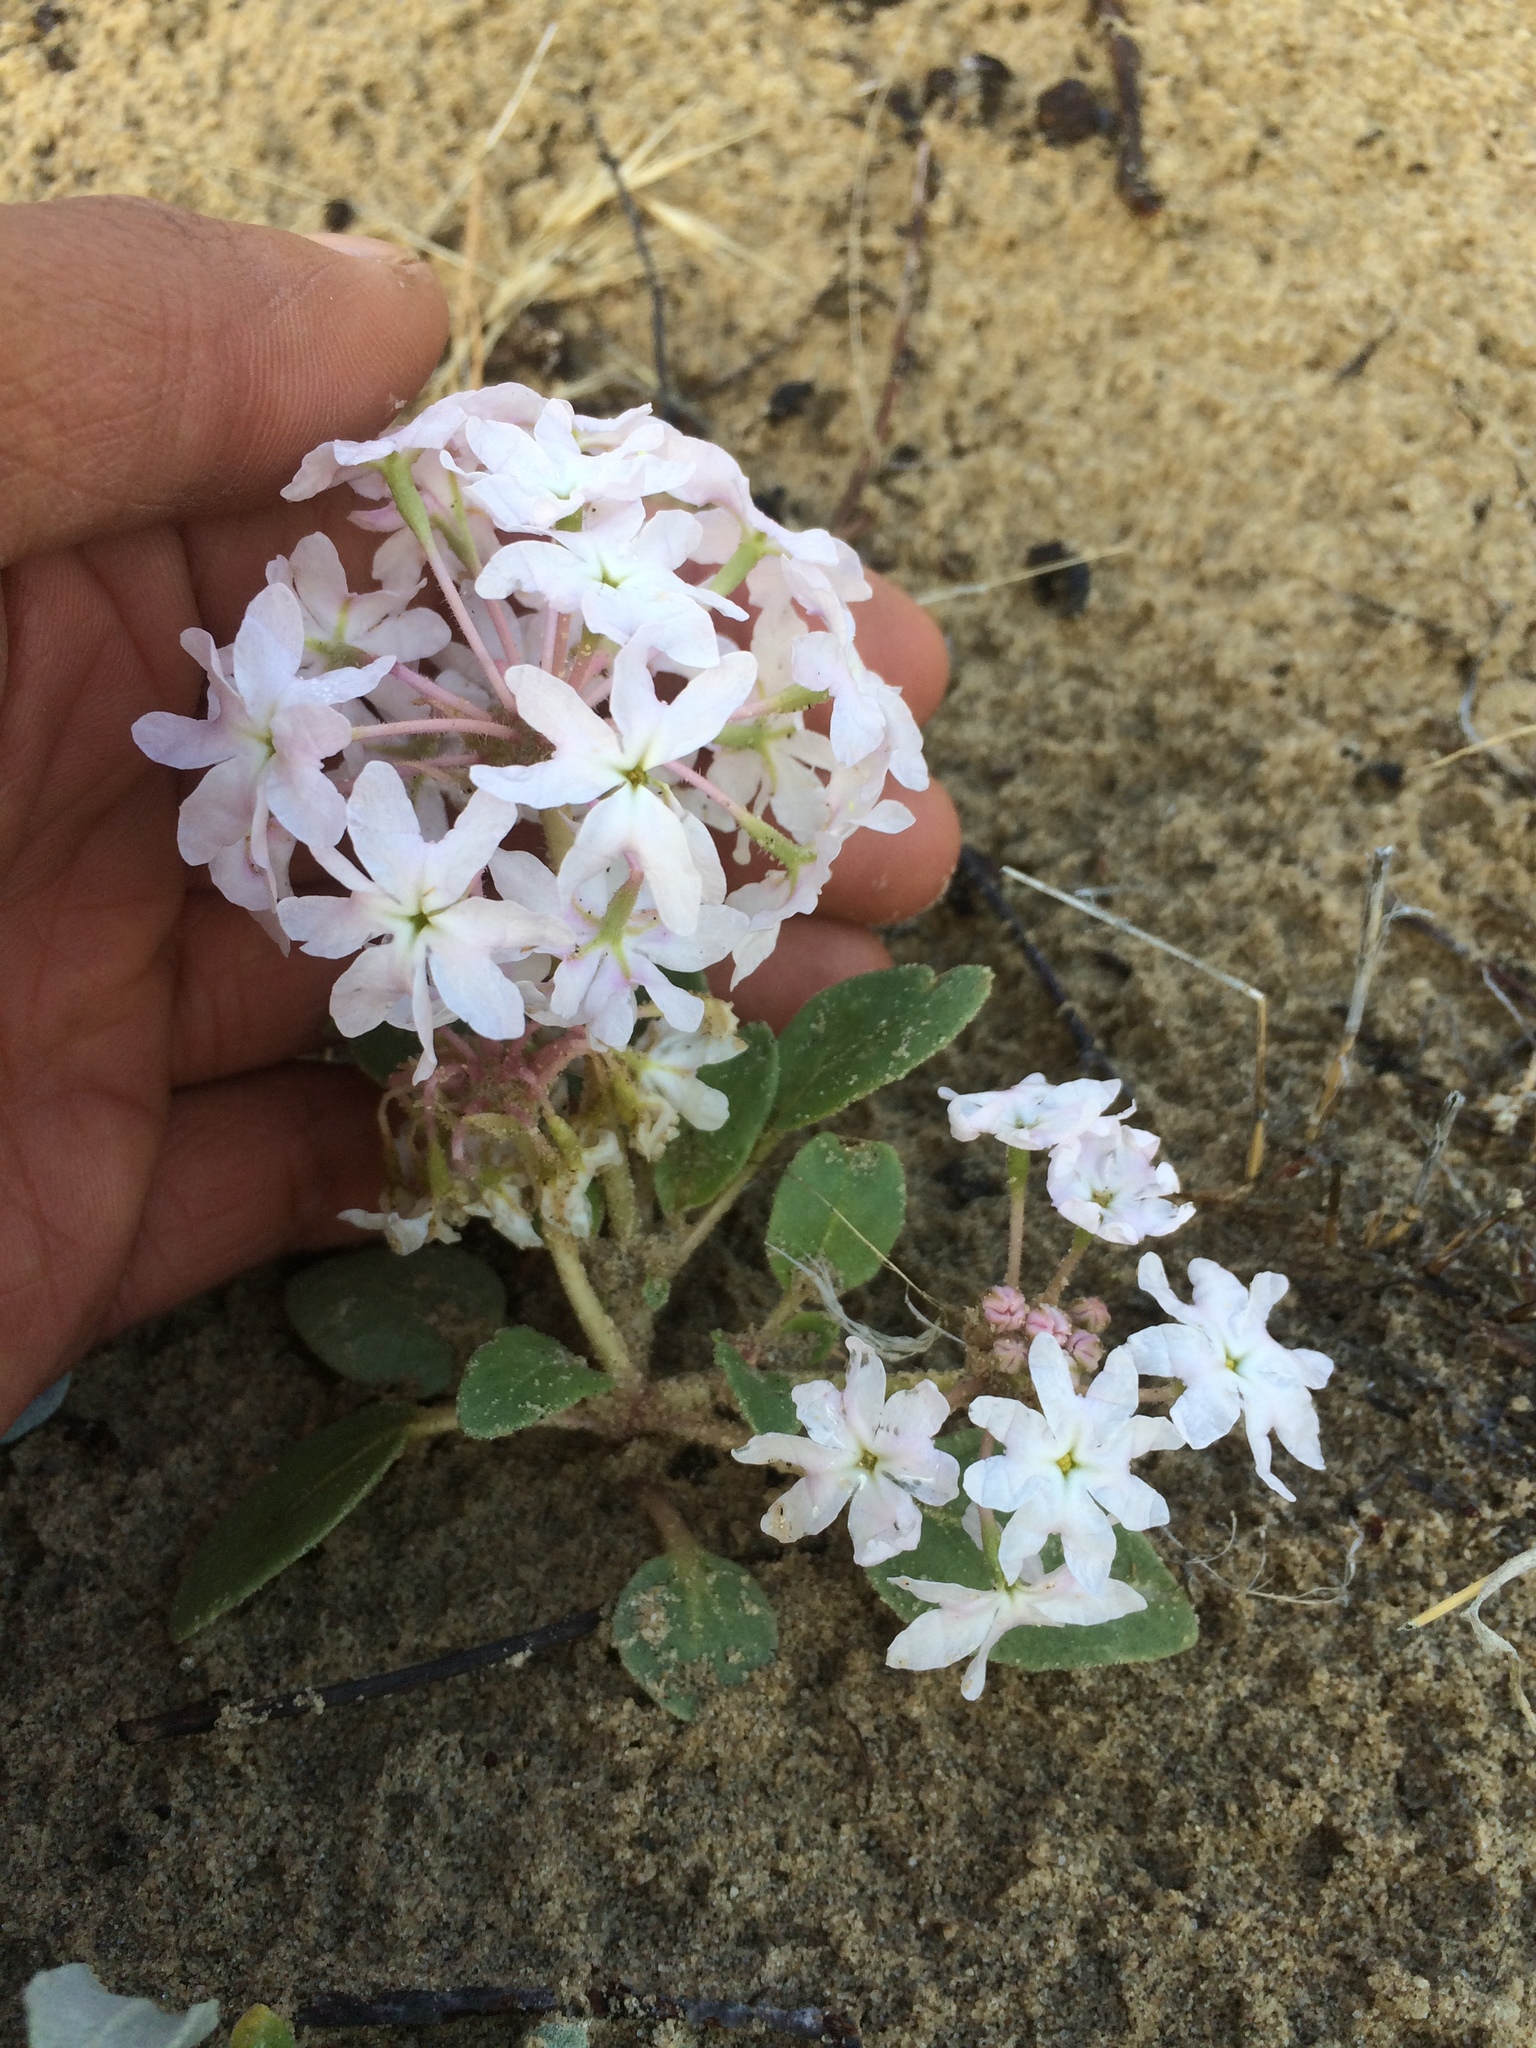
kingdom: Plantae
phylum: Tracheophyta
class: Magnoliopsida
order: Caryophyllales
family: Nyctaginaceae
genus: Tripterocalyx
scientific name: Tripterocalyx crux-maltae
